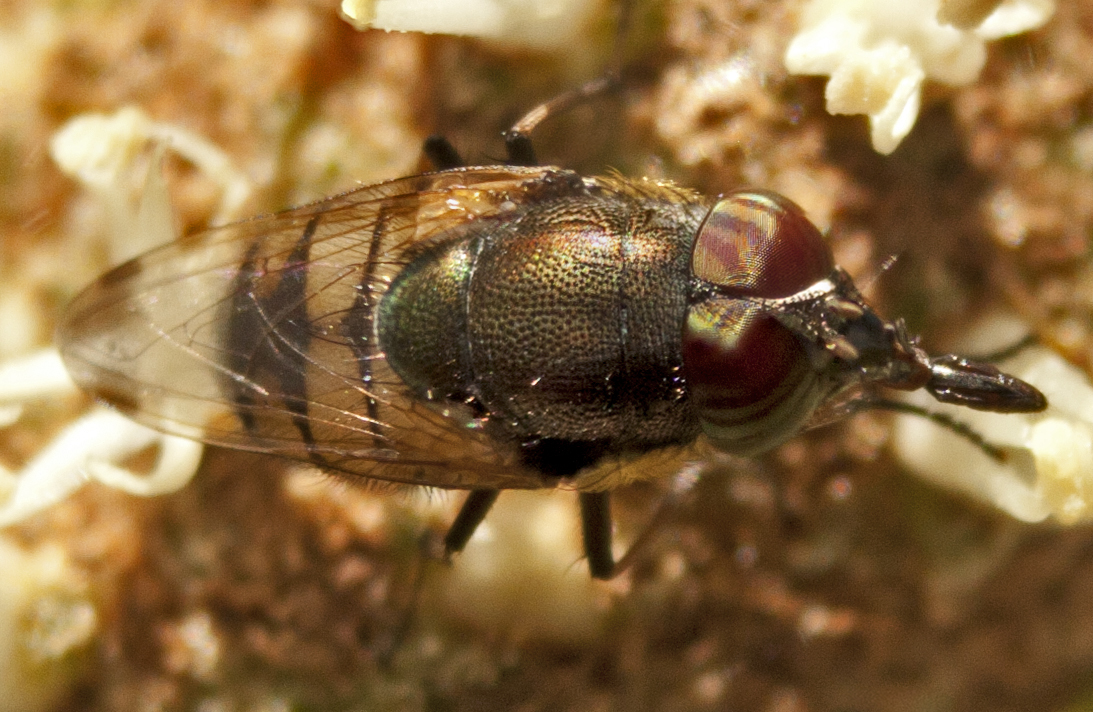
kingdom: Animalia
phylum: Arthropoda
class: Insecta
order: Diptera
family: Calliphoridae
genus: Stomorhina
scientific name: Stomorhina discolor
